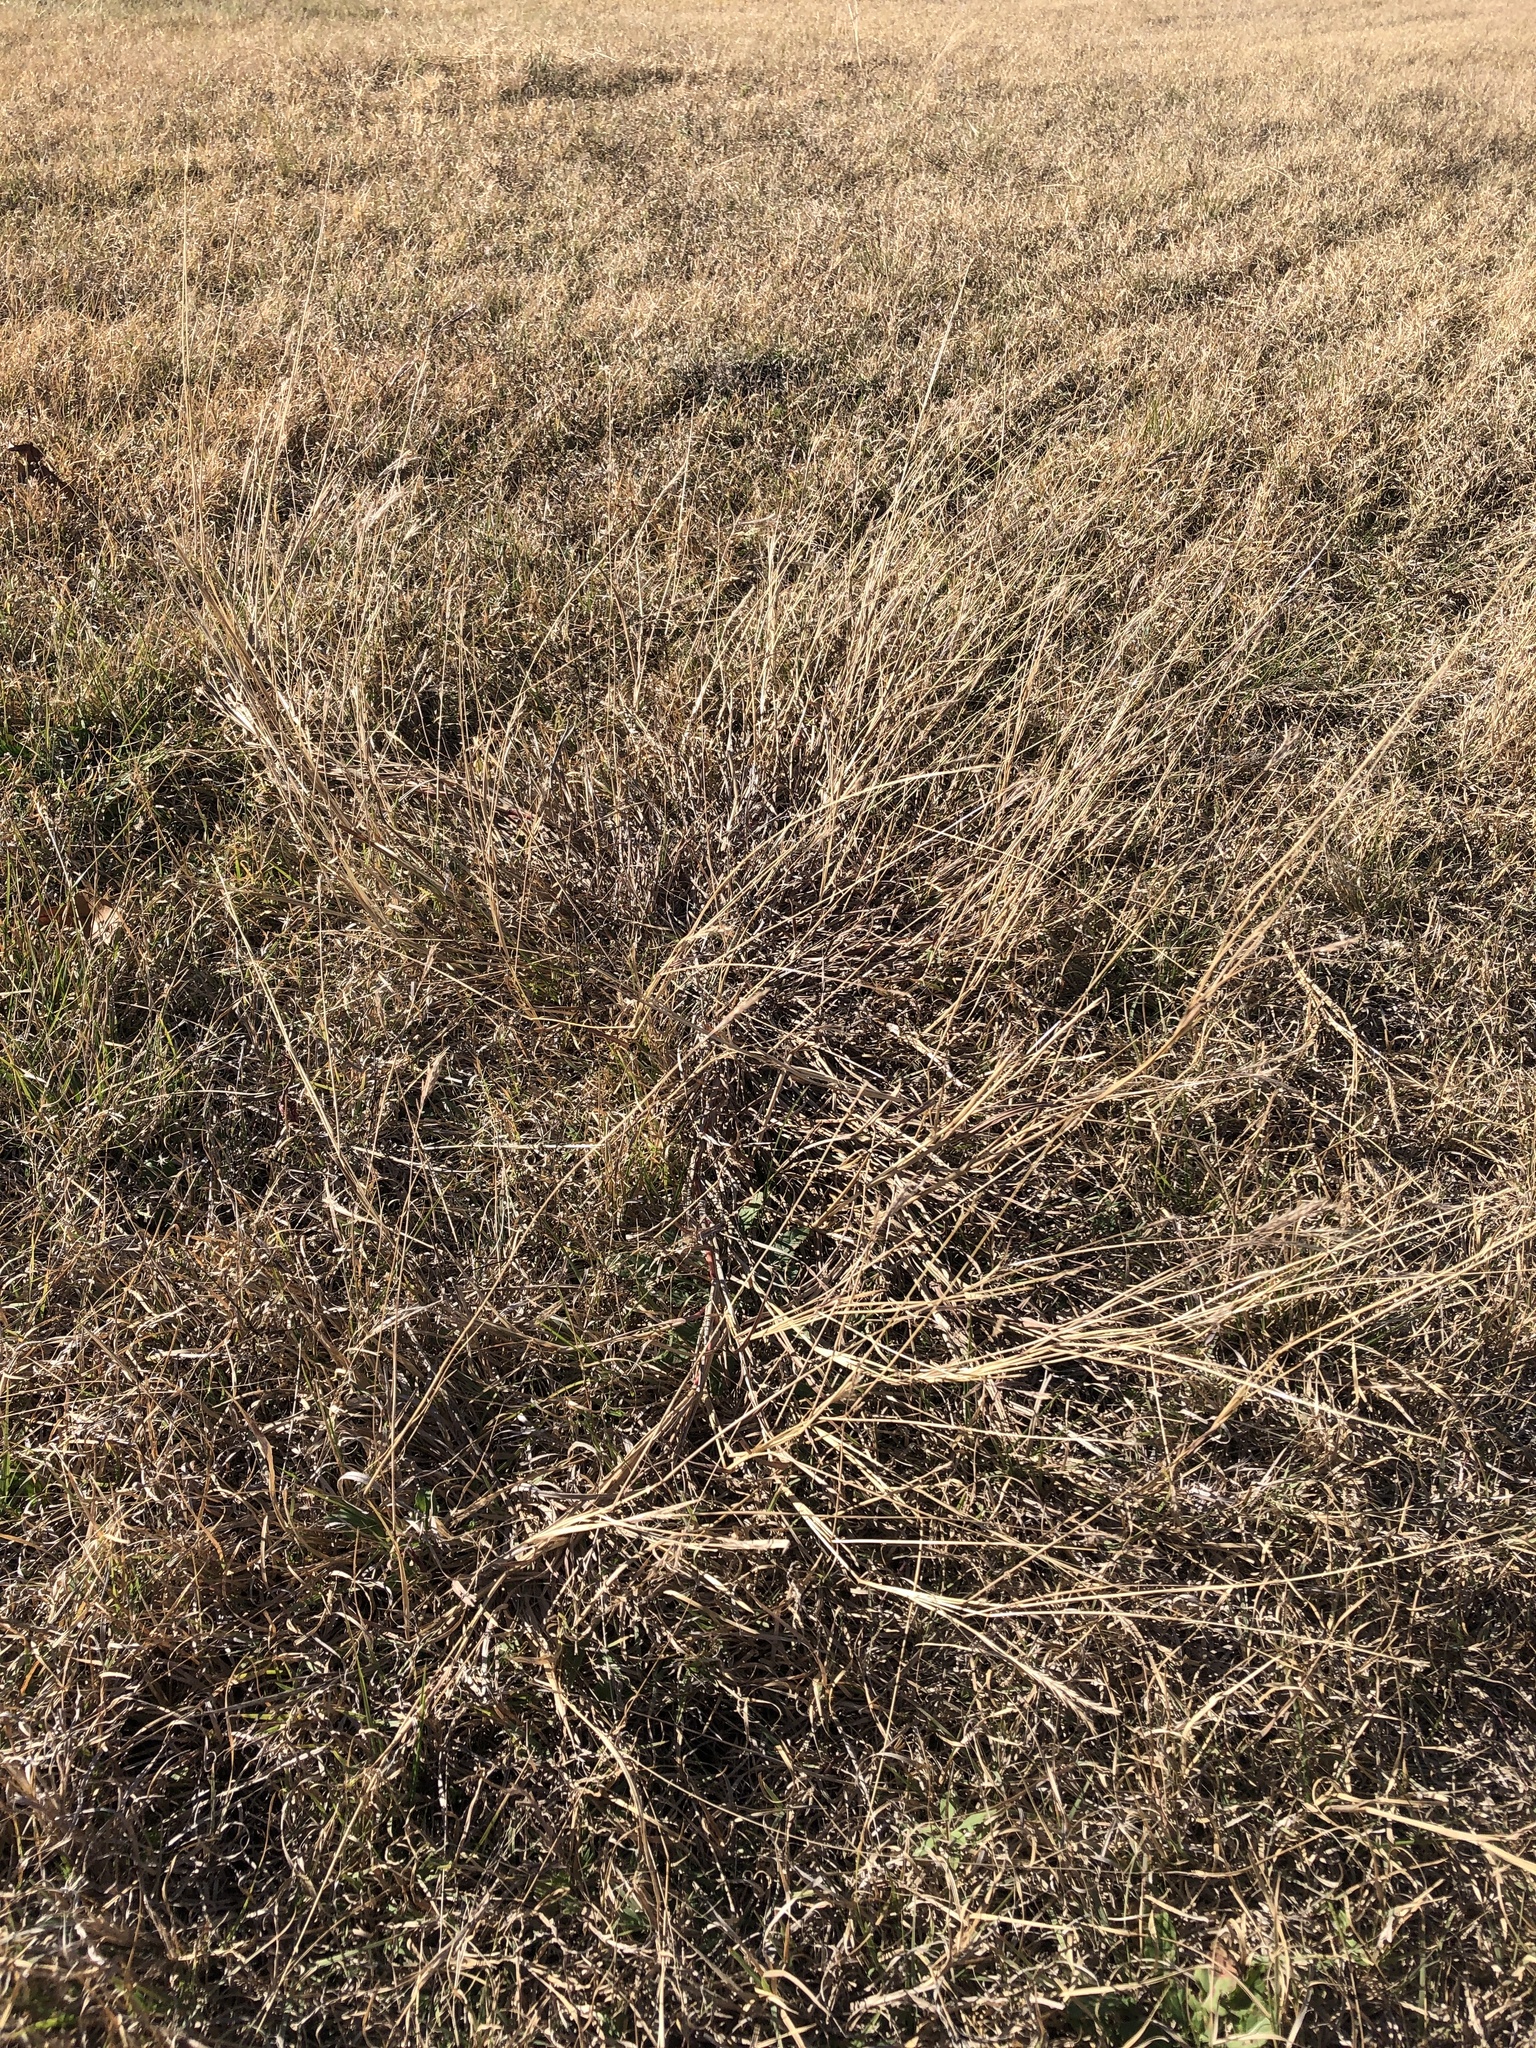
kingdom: Plantae
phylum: Tracheophyta
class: Liliopsida
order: Poales
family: Poaceae
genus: Bothriochloa
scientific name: Bothriochloa ischaemum
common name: Yellow bluestem
